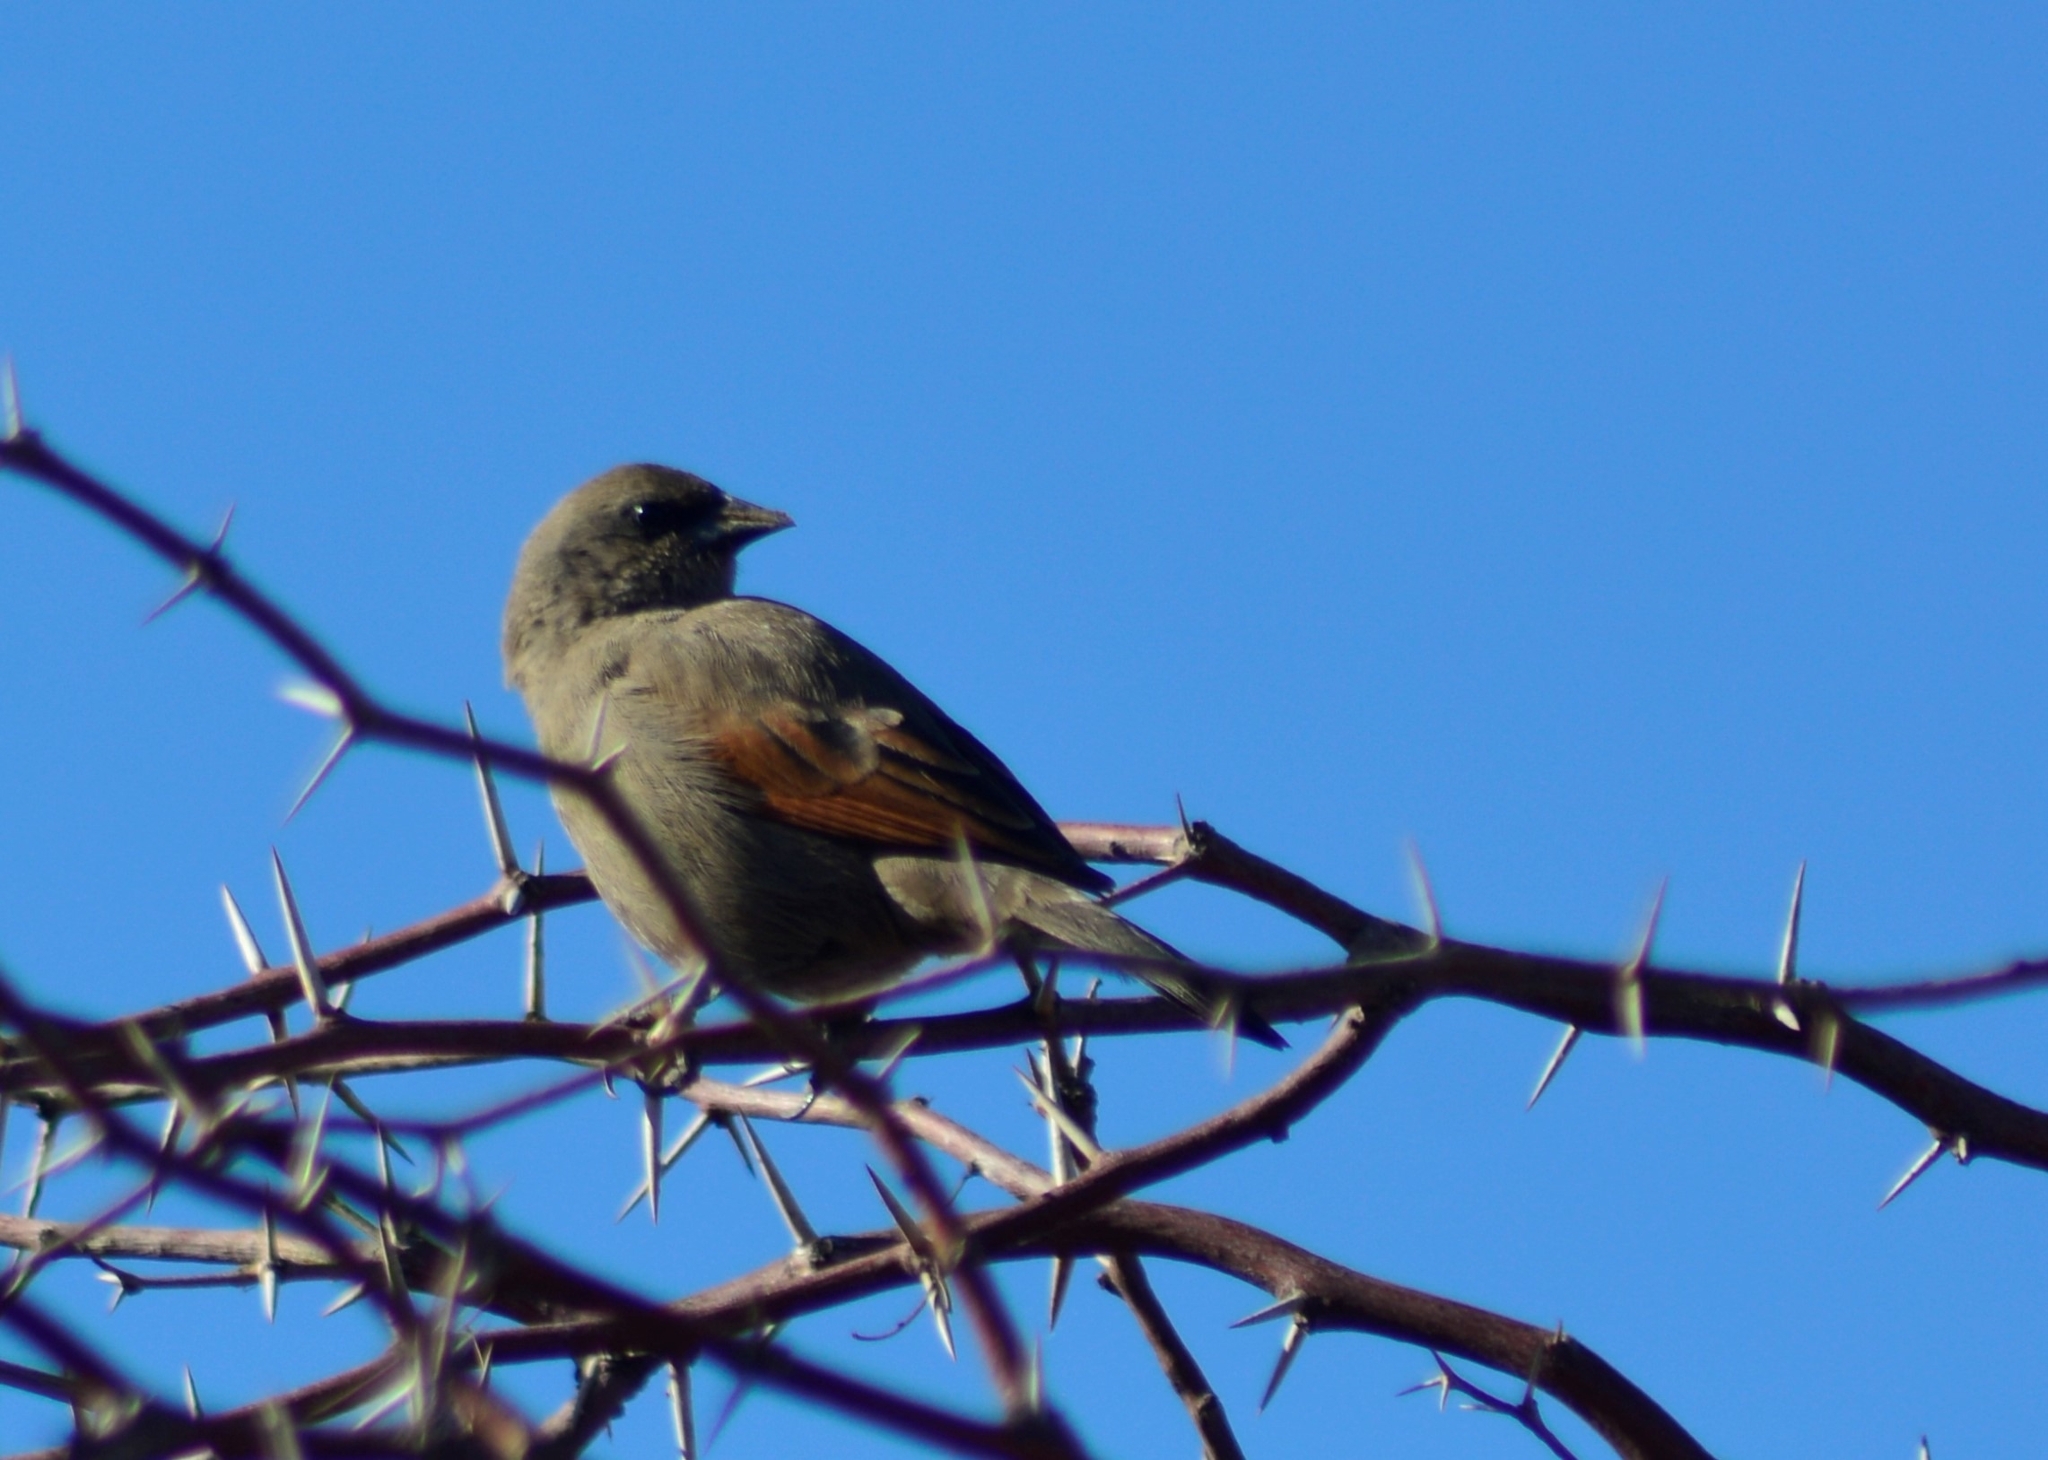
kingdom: Animalia
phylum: Chordata
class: Aves
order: Passeriformes
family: Icteridae
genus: Agelaioides
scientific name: Agelaioides badius
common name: Baywing
